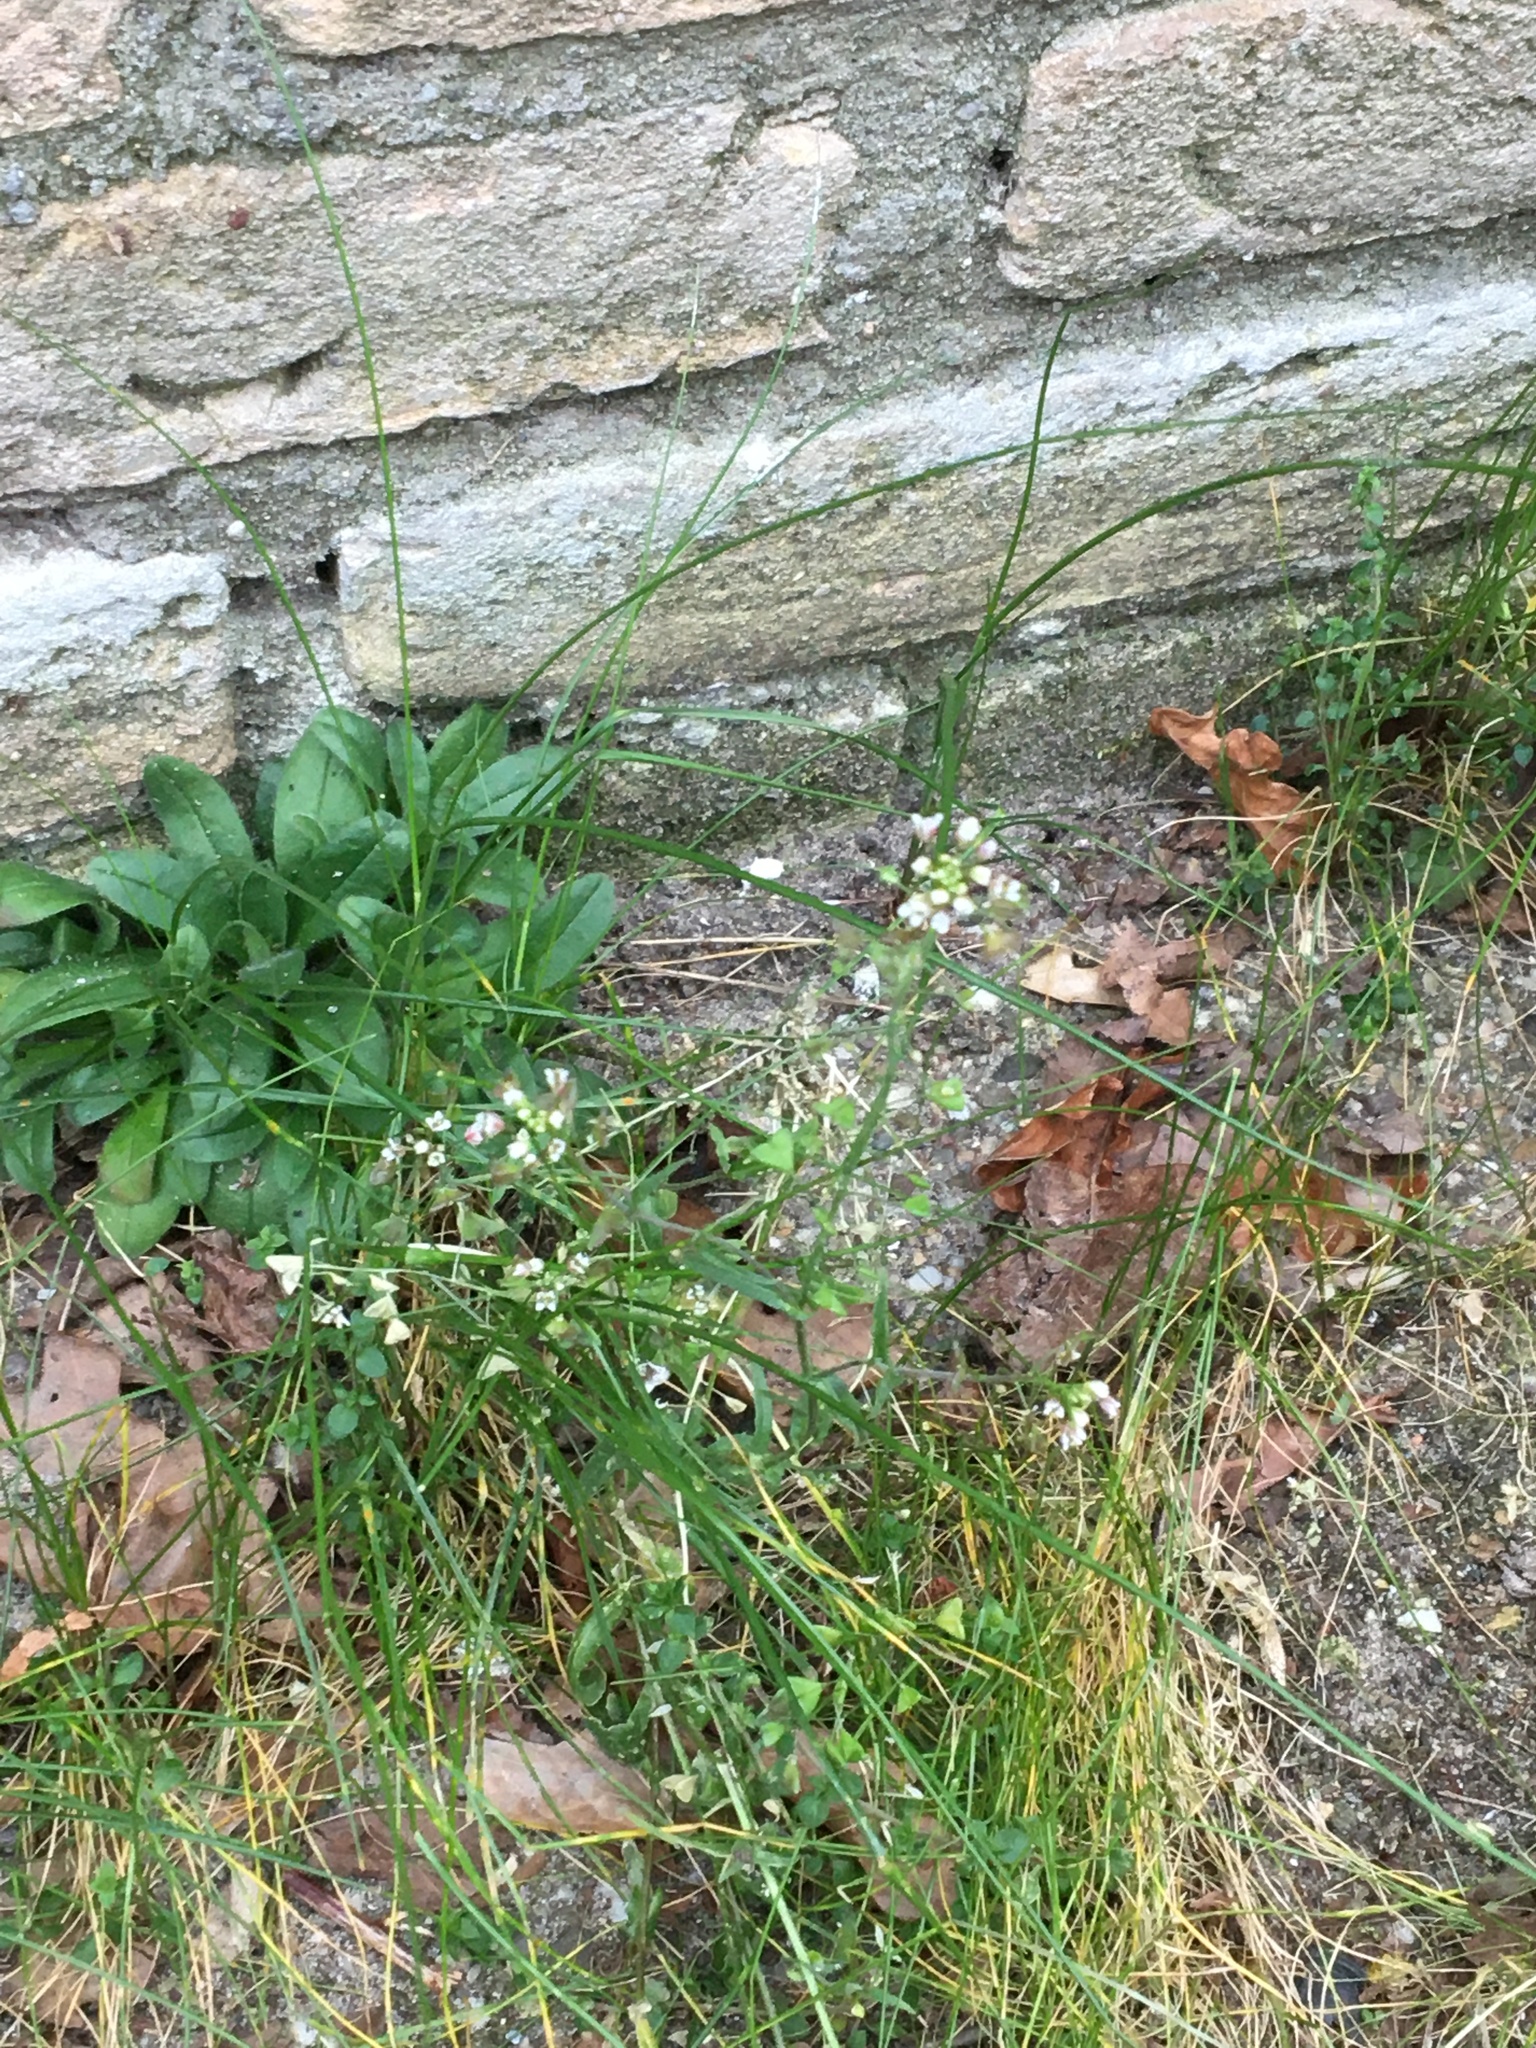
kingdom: Plantae
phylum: Tracheophyta
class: Magnoliopsida
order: Brassicales
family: Brassicaceae
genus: Capsella
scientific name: Capsella bursa-pastoris
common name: Shepherd's purse
